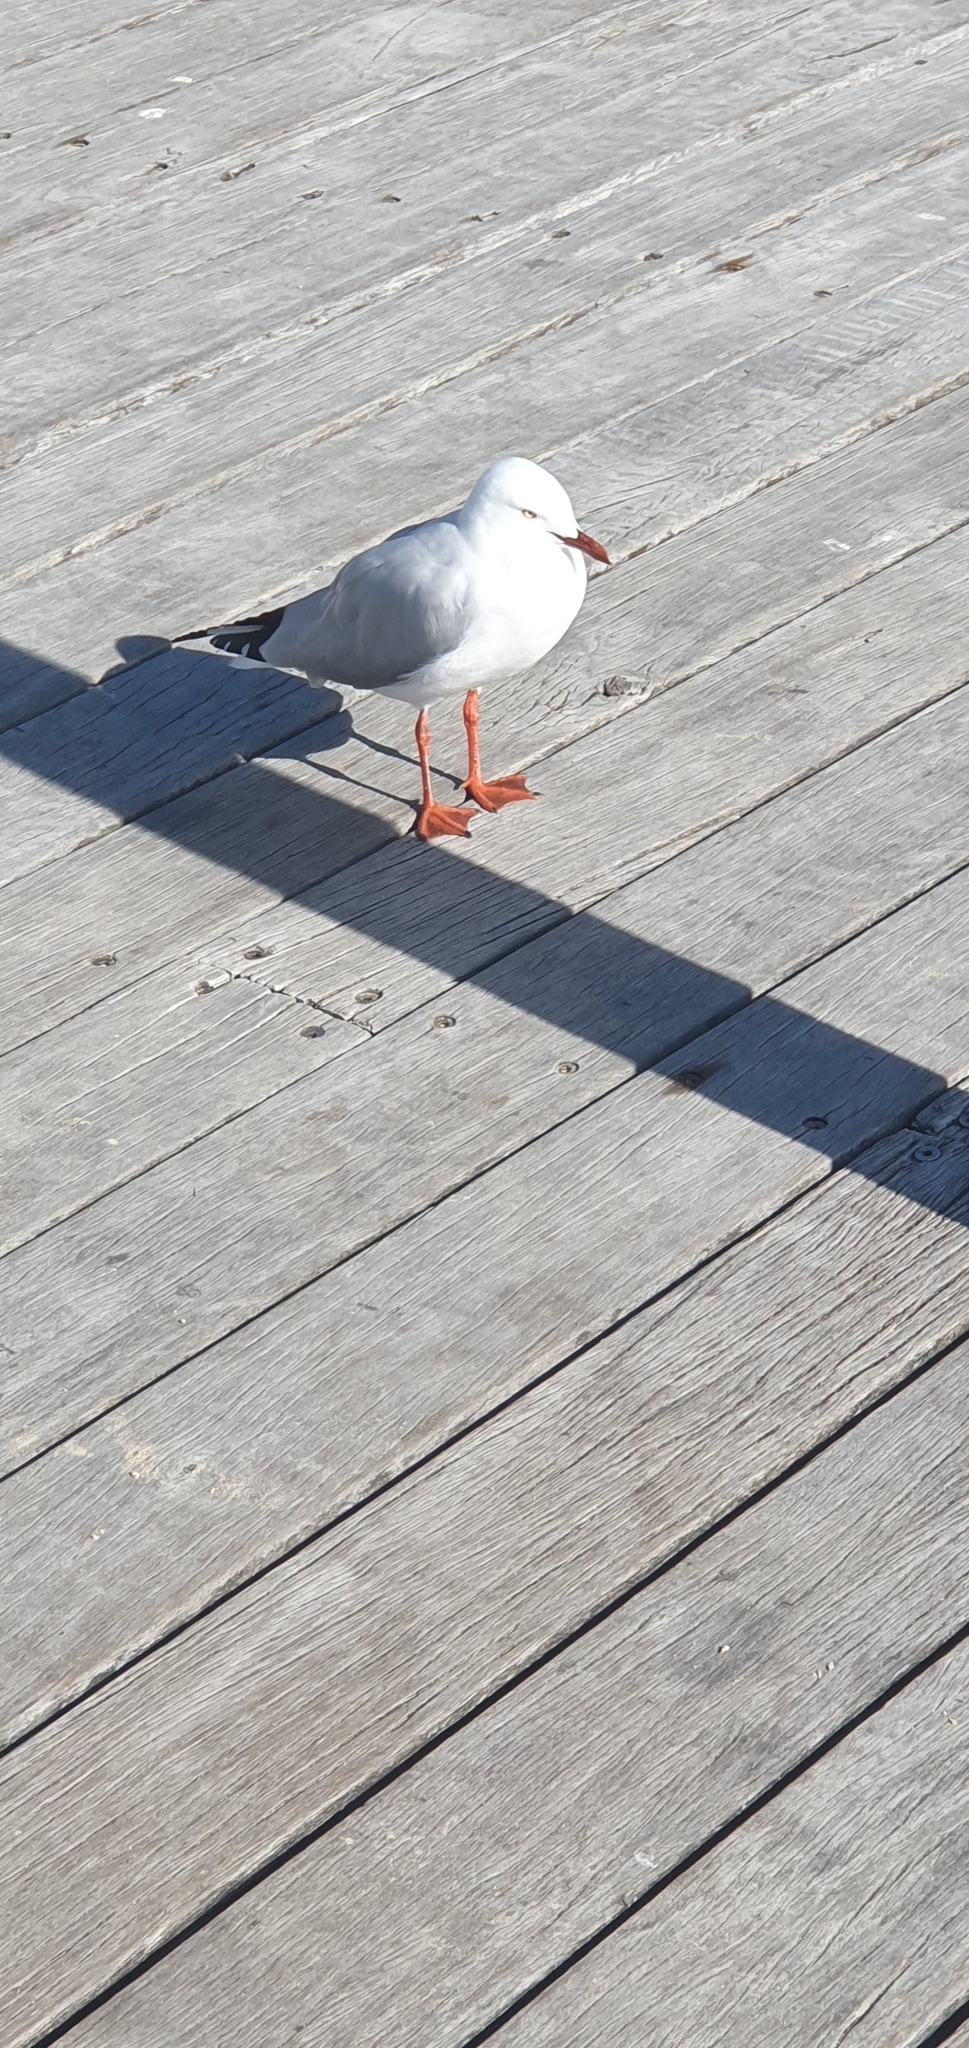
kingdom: Animalia
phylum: Chordata
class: Aves
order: Charadriiformes
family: Laridae
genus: Chroicocephalus
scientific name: Chroicocephalus novaehollandiae
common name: Silver gull
